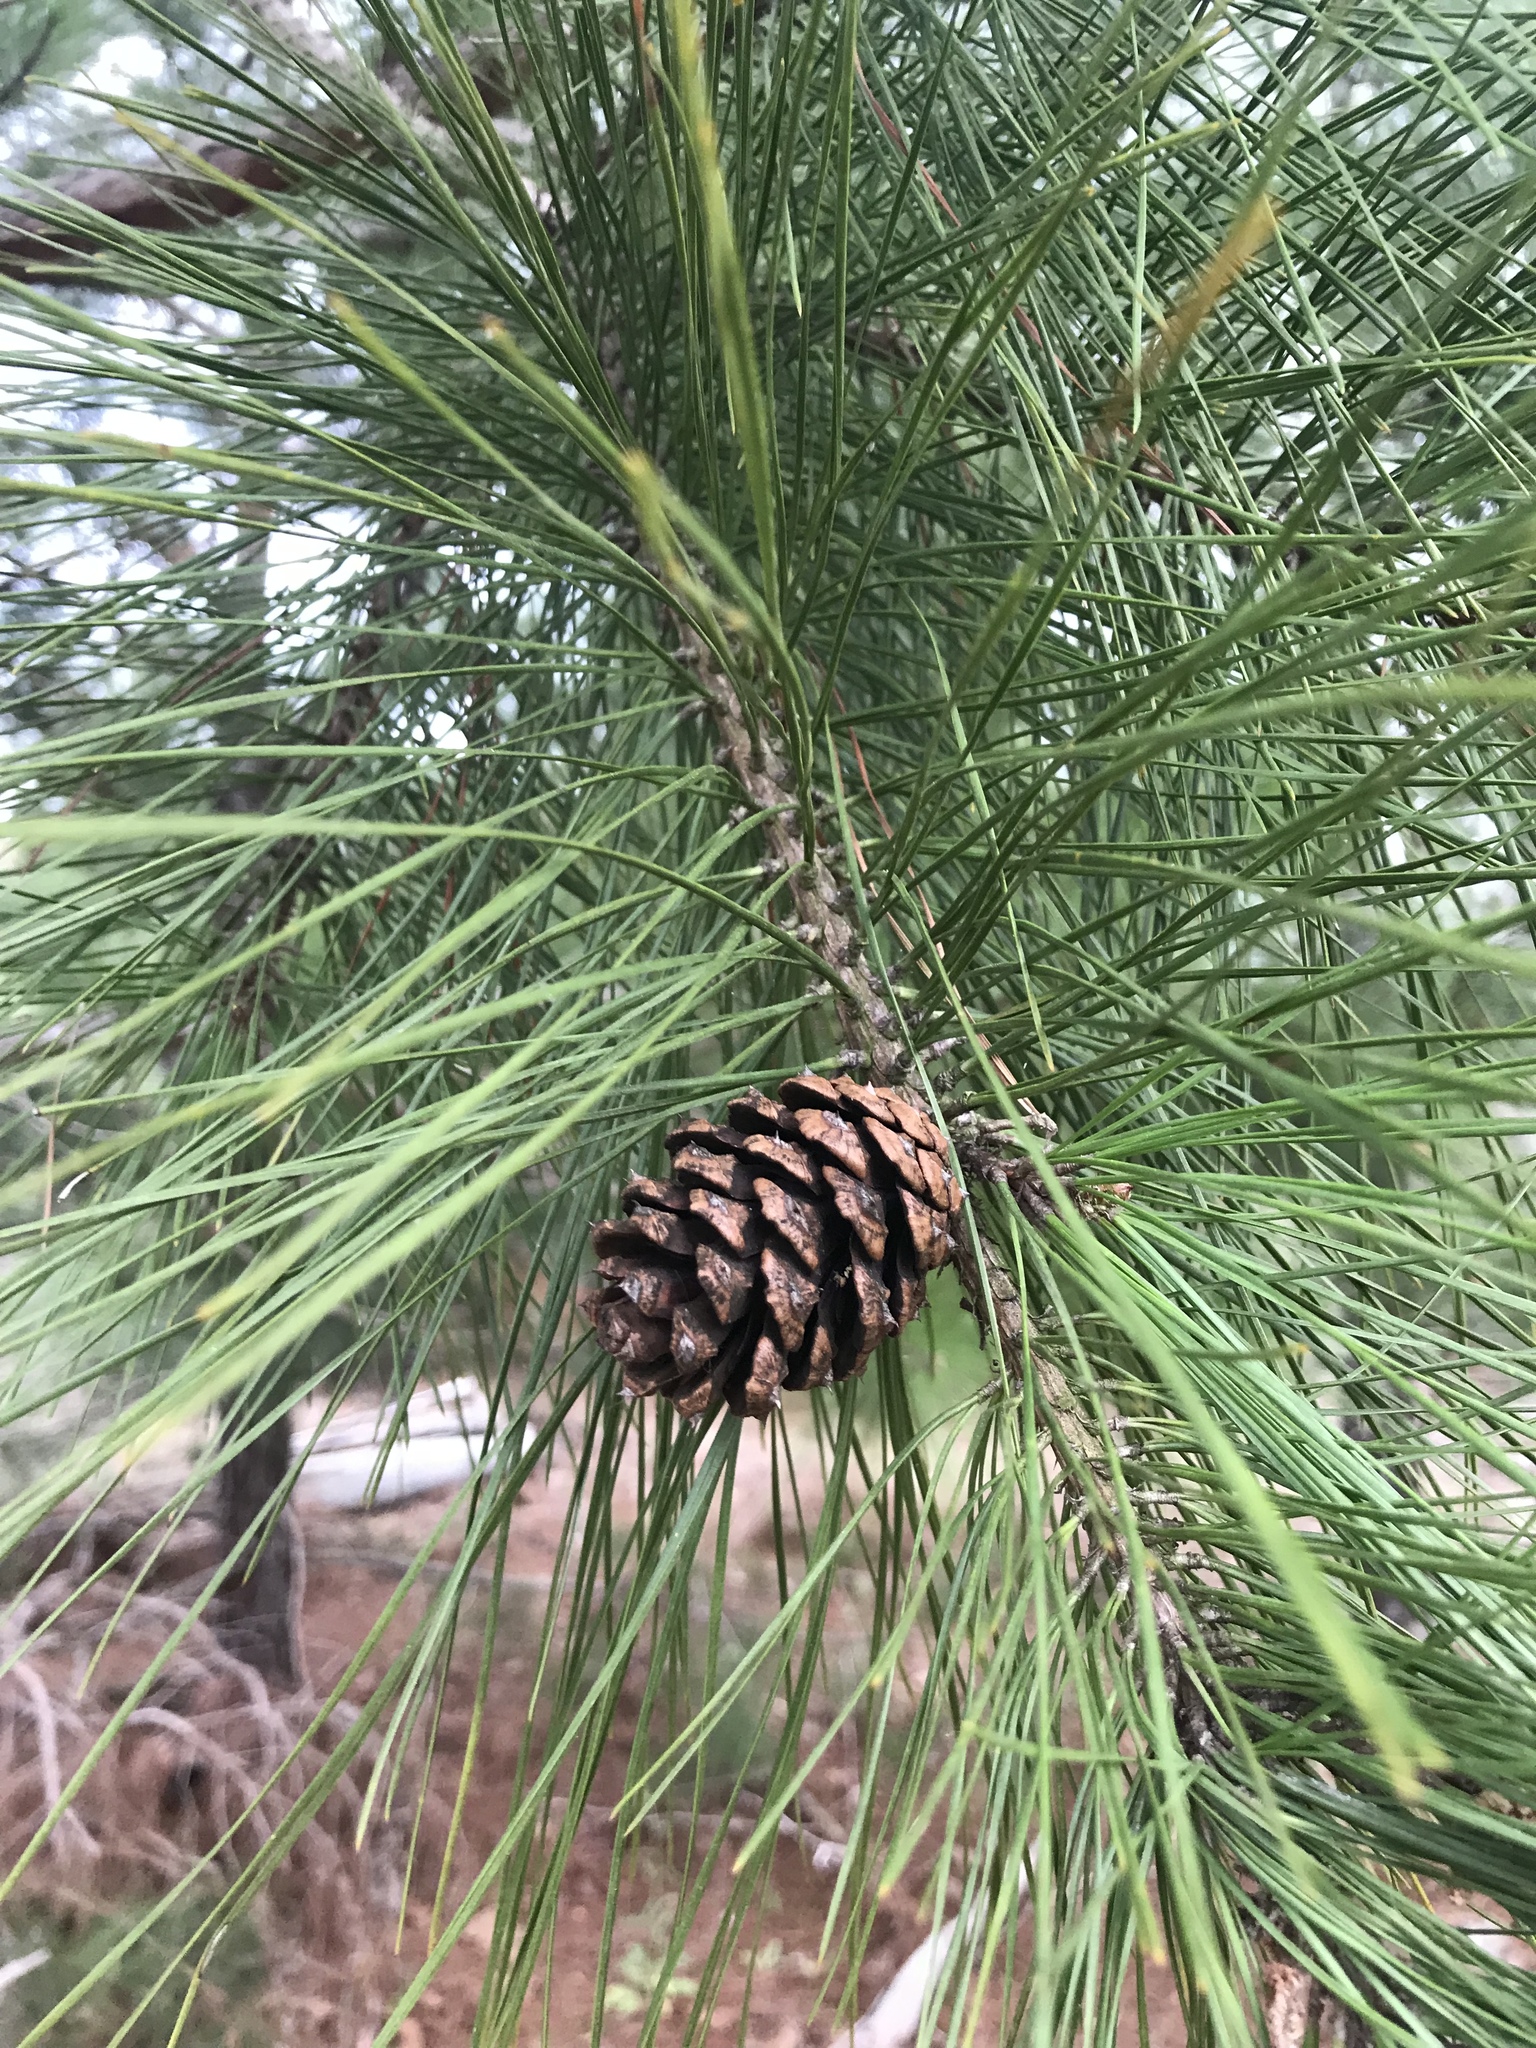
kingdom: Plantae
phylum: Tracheophyta
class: Pinopsida
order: Pinales
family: Pinaceae
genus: Pinus
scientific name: Pinus taeda
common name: Loblolly pine
